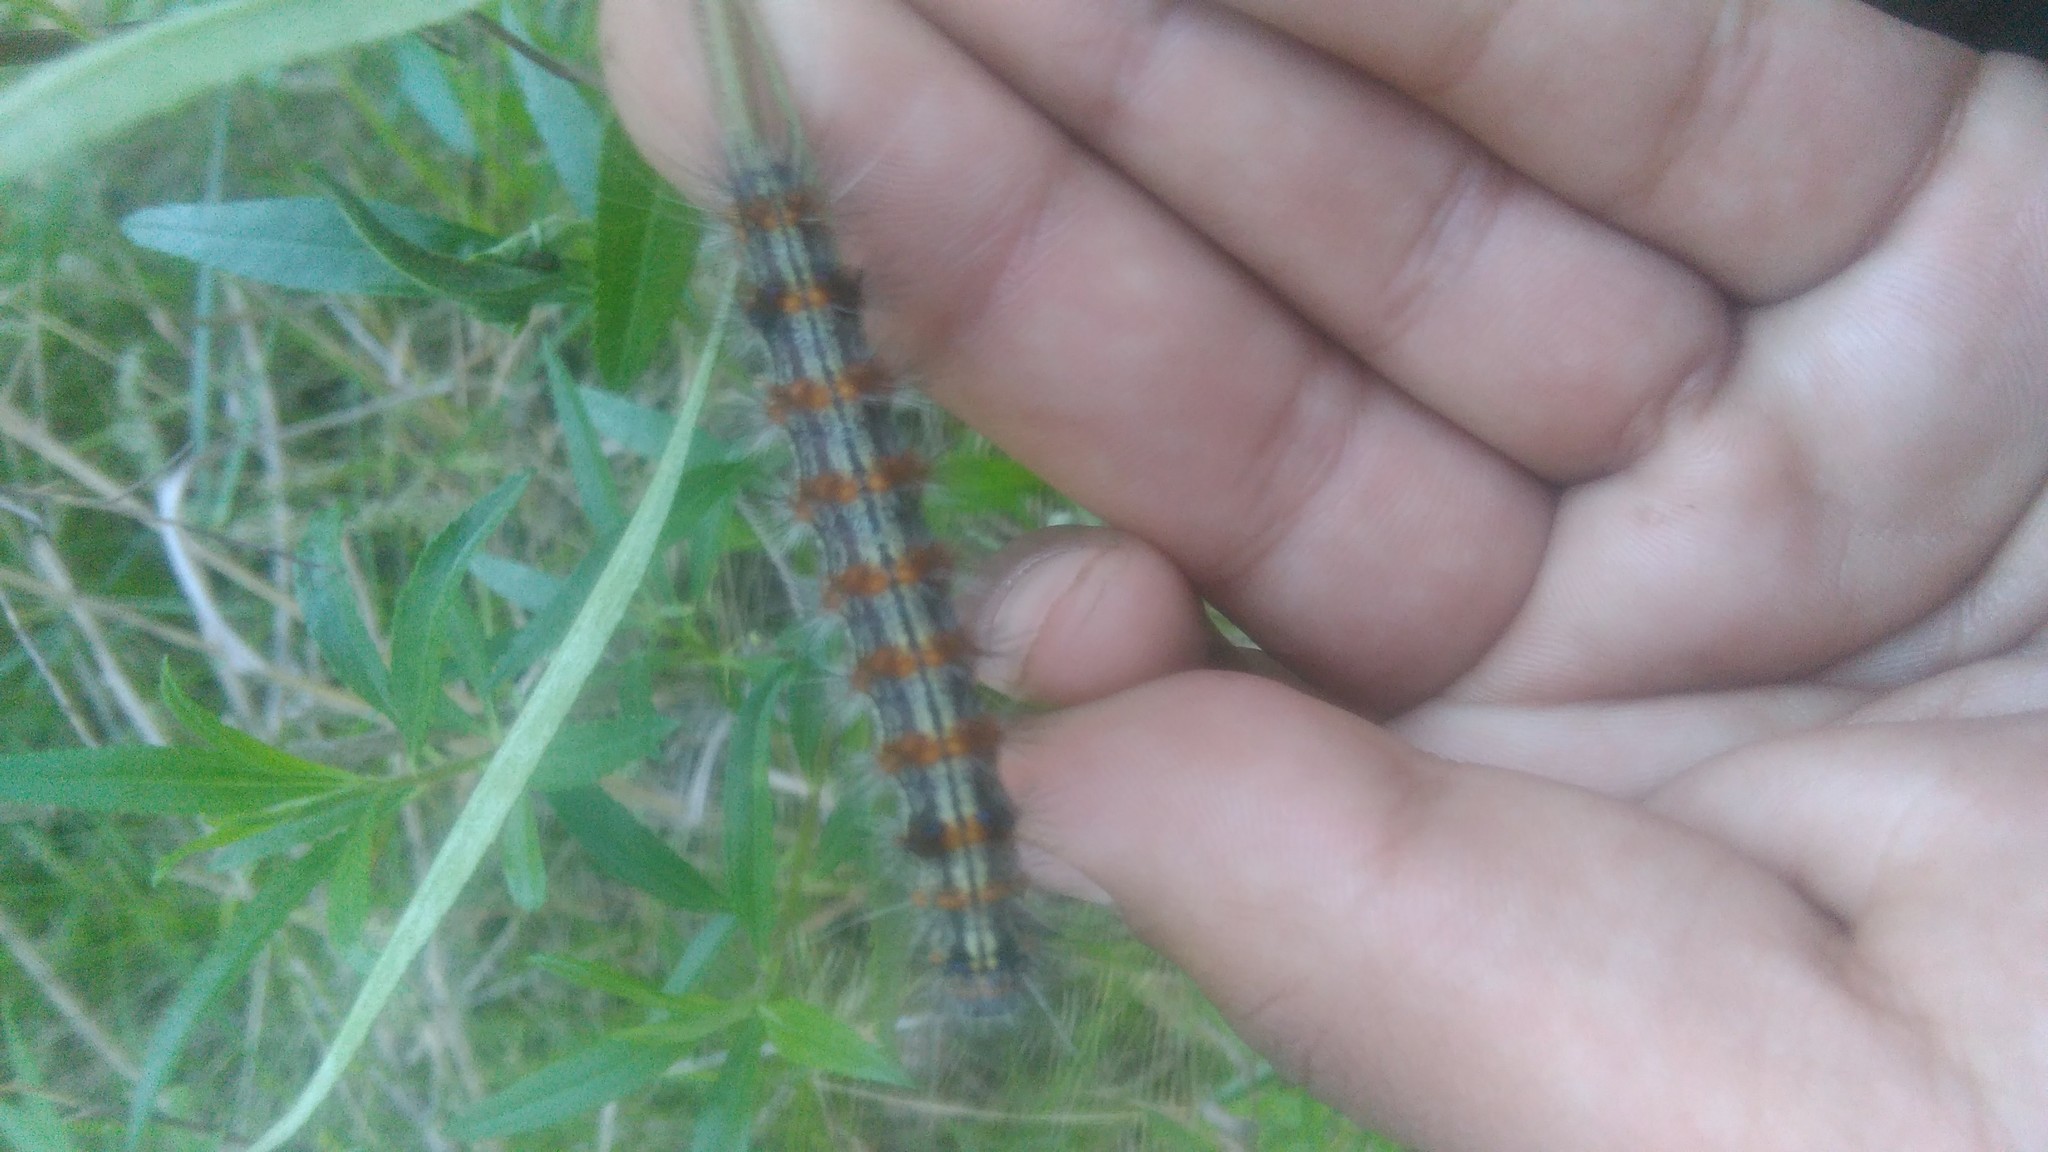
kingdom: Animalia
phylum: Arthropoda
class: Insecta
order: Lepidoptera
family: Erebidae
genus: Dysschema
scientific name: Dysschema sacrifica
